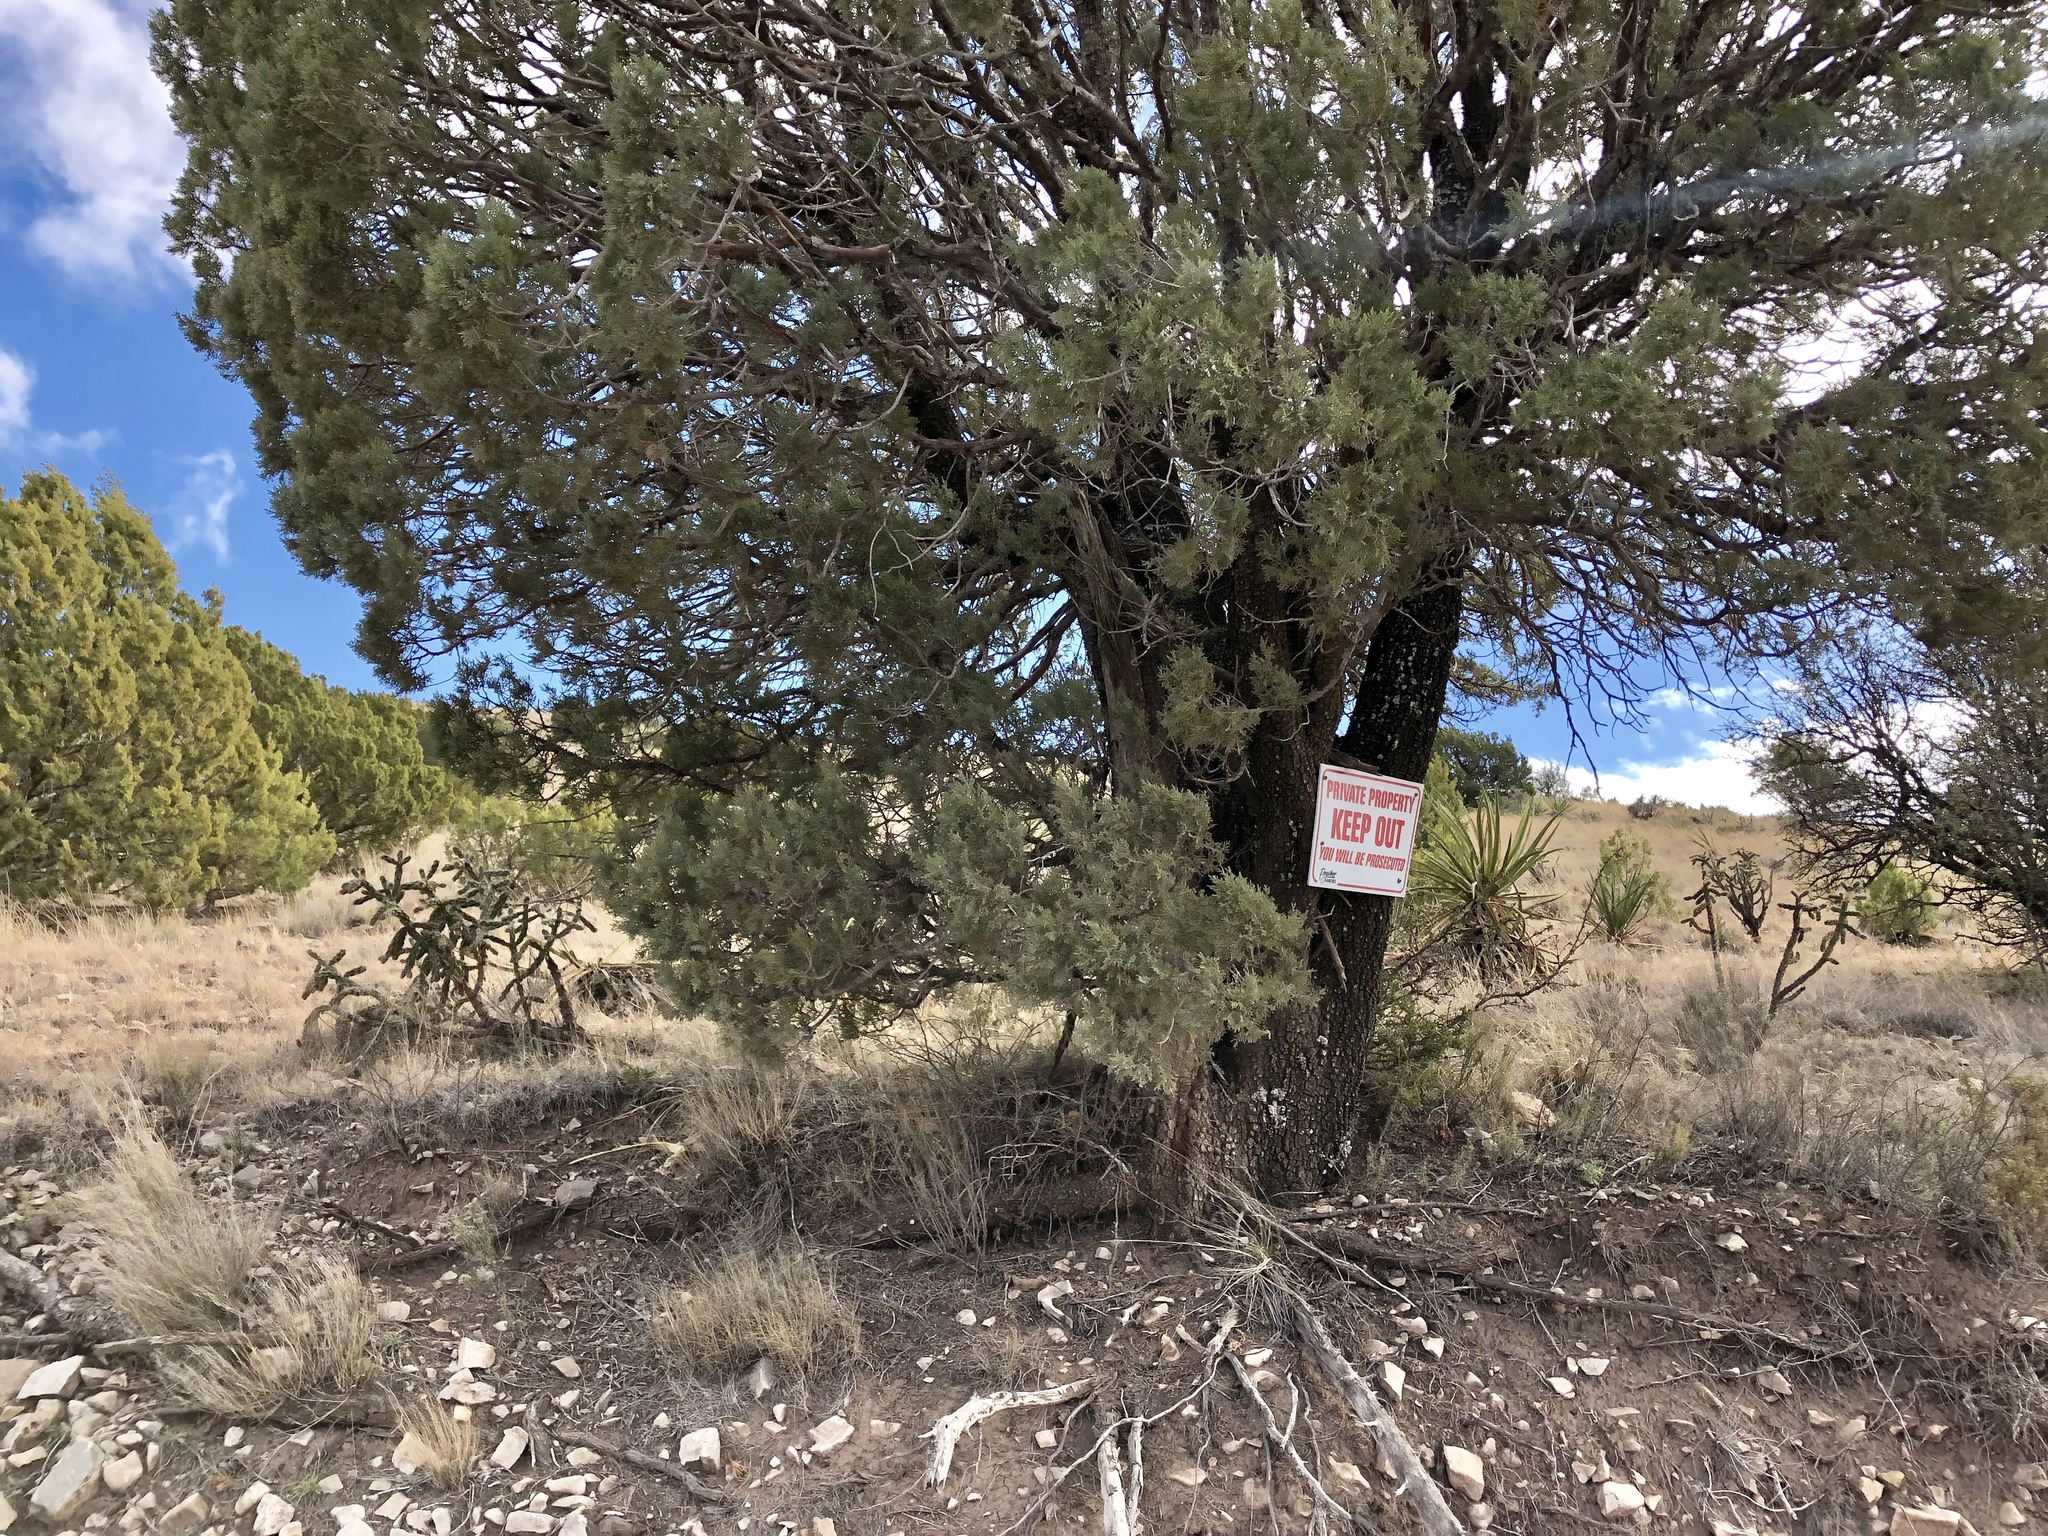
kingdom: Plantae
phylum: Tracheophyta
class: Pinopsida
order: Pinales
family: Cupressaceae
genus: Juniperus
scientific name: Juniperus deppeana
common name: Alligator juniper
